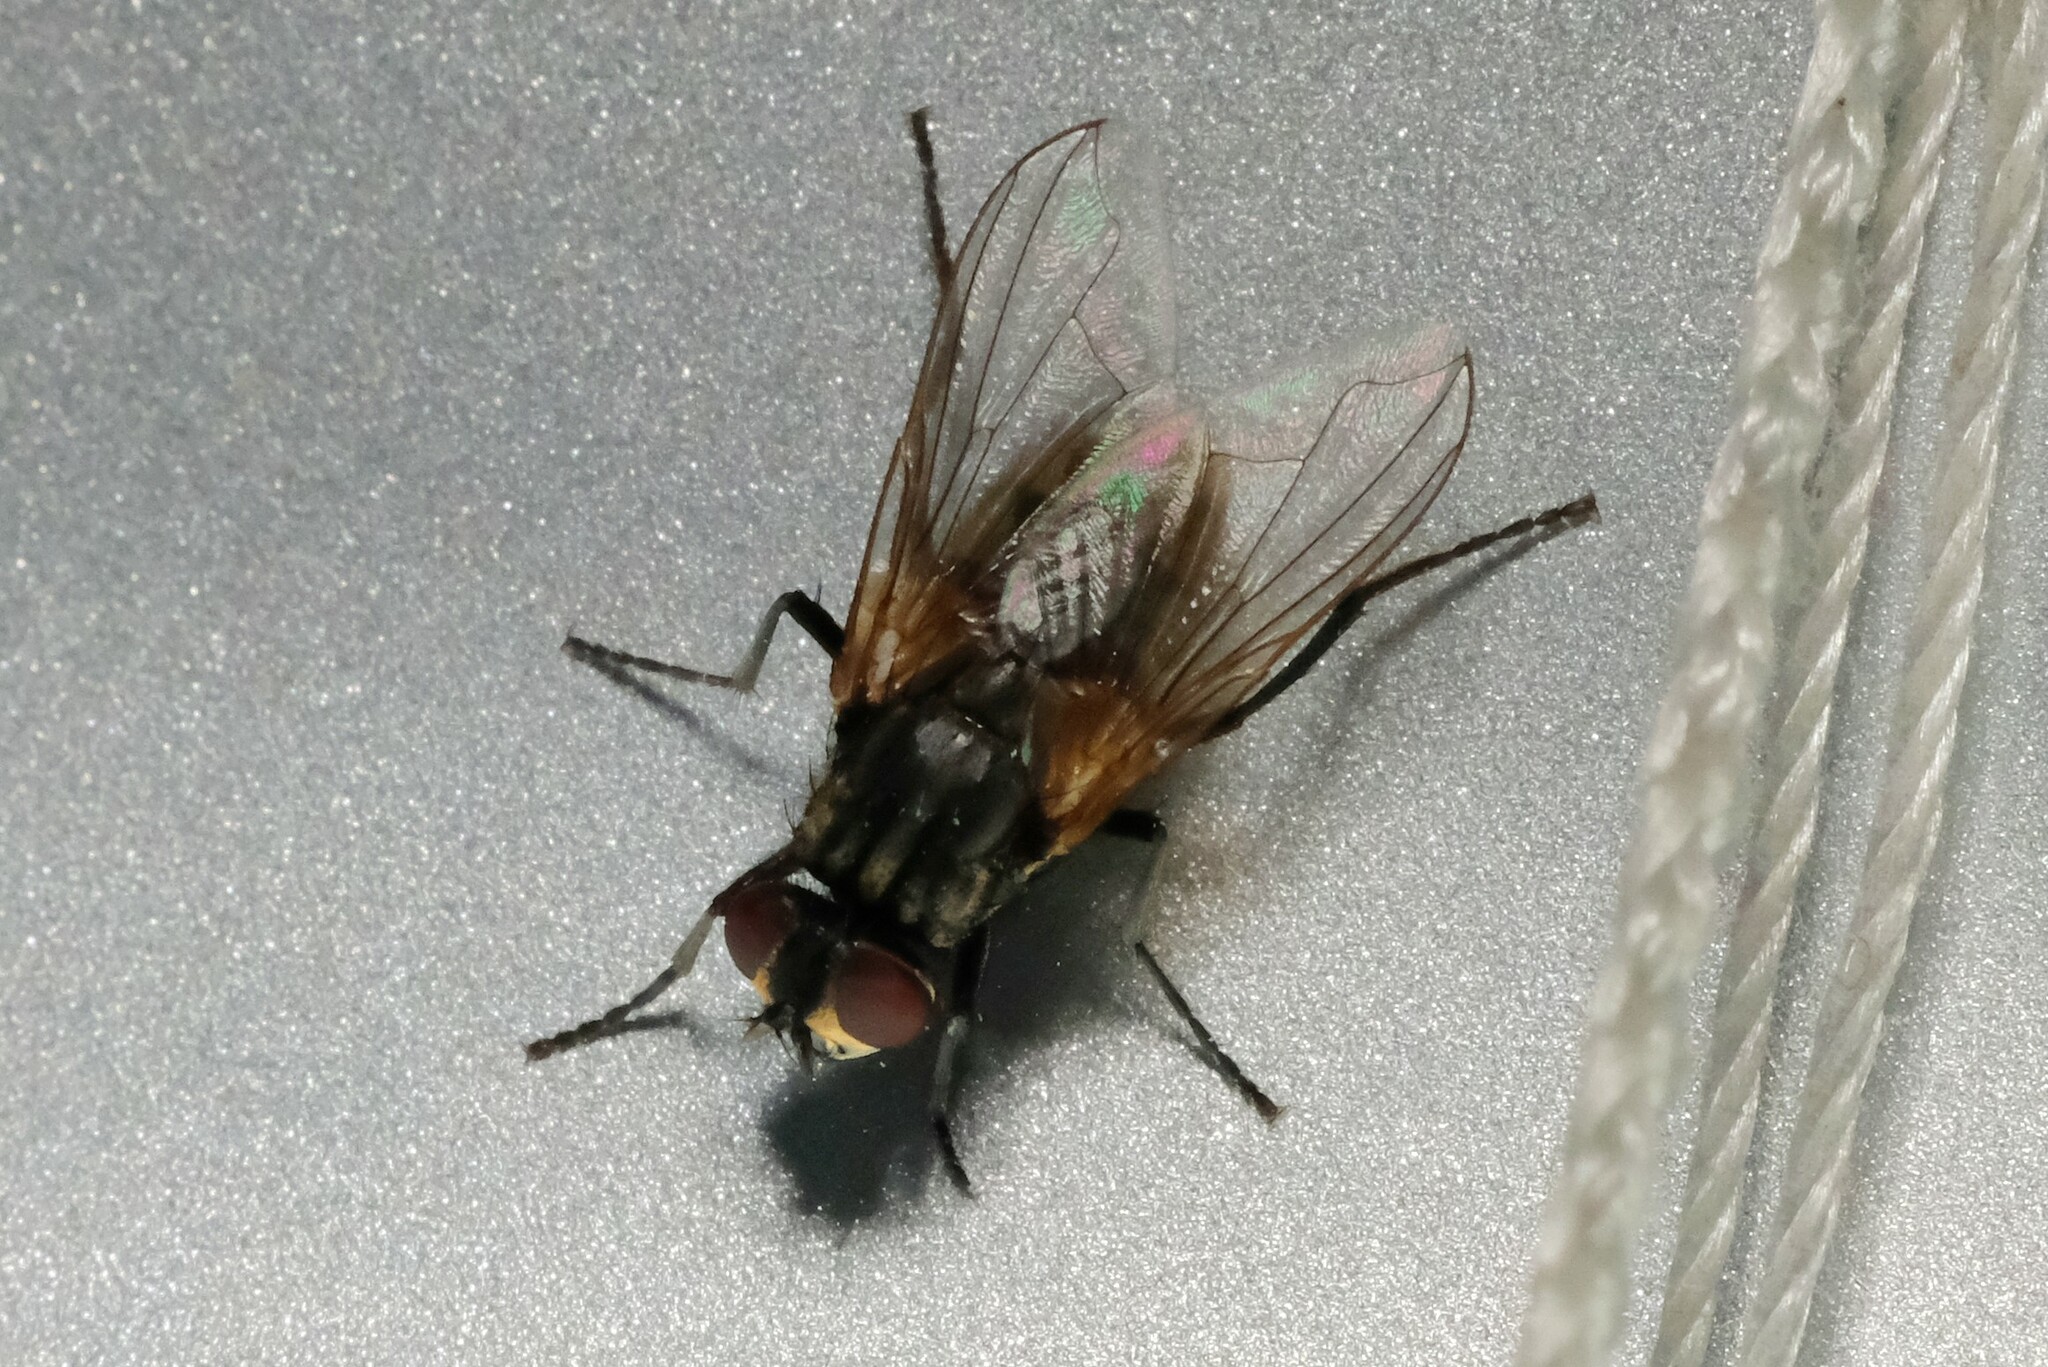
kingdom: Animalia
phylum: Arthropoda
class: Insecta
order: Diptera
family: Muscidae
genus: Musca
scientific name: Musca domestica
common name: House fly
